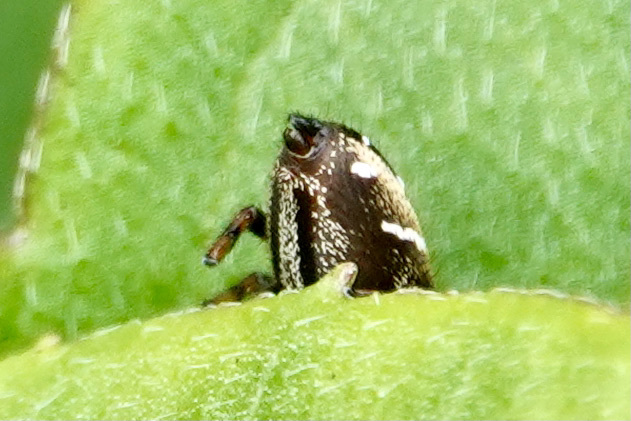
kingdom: Animalia
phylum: Arthropoda
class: Arachnida
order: Araneae
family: Salticidae
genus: Phidippus
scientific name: Phidippus clarus
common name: Brilliant jumping spider
